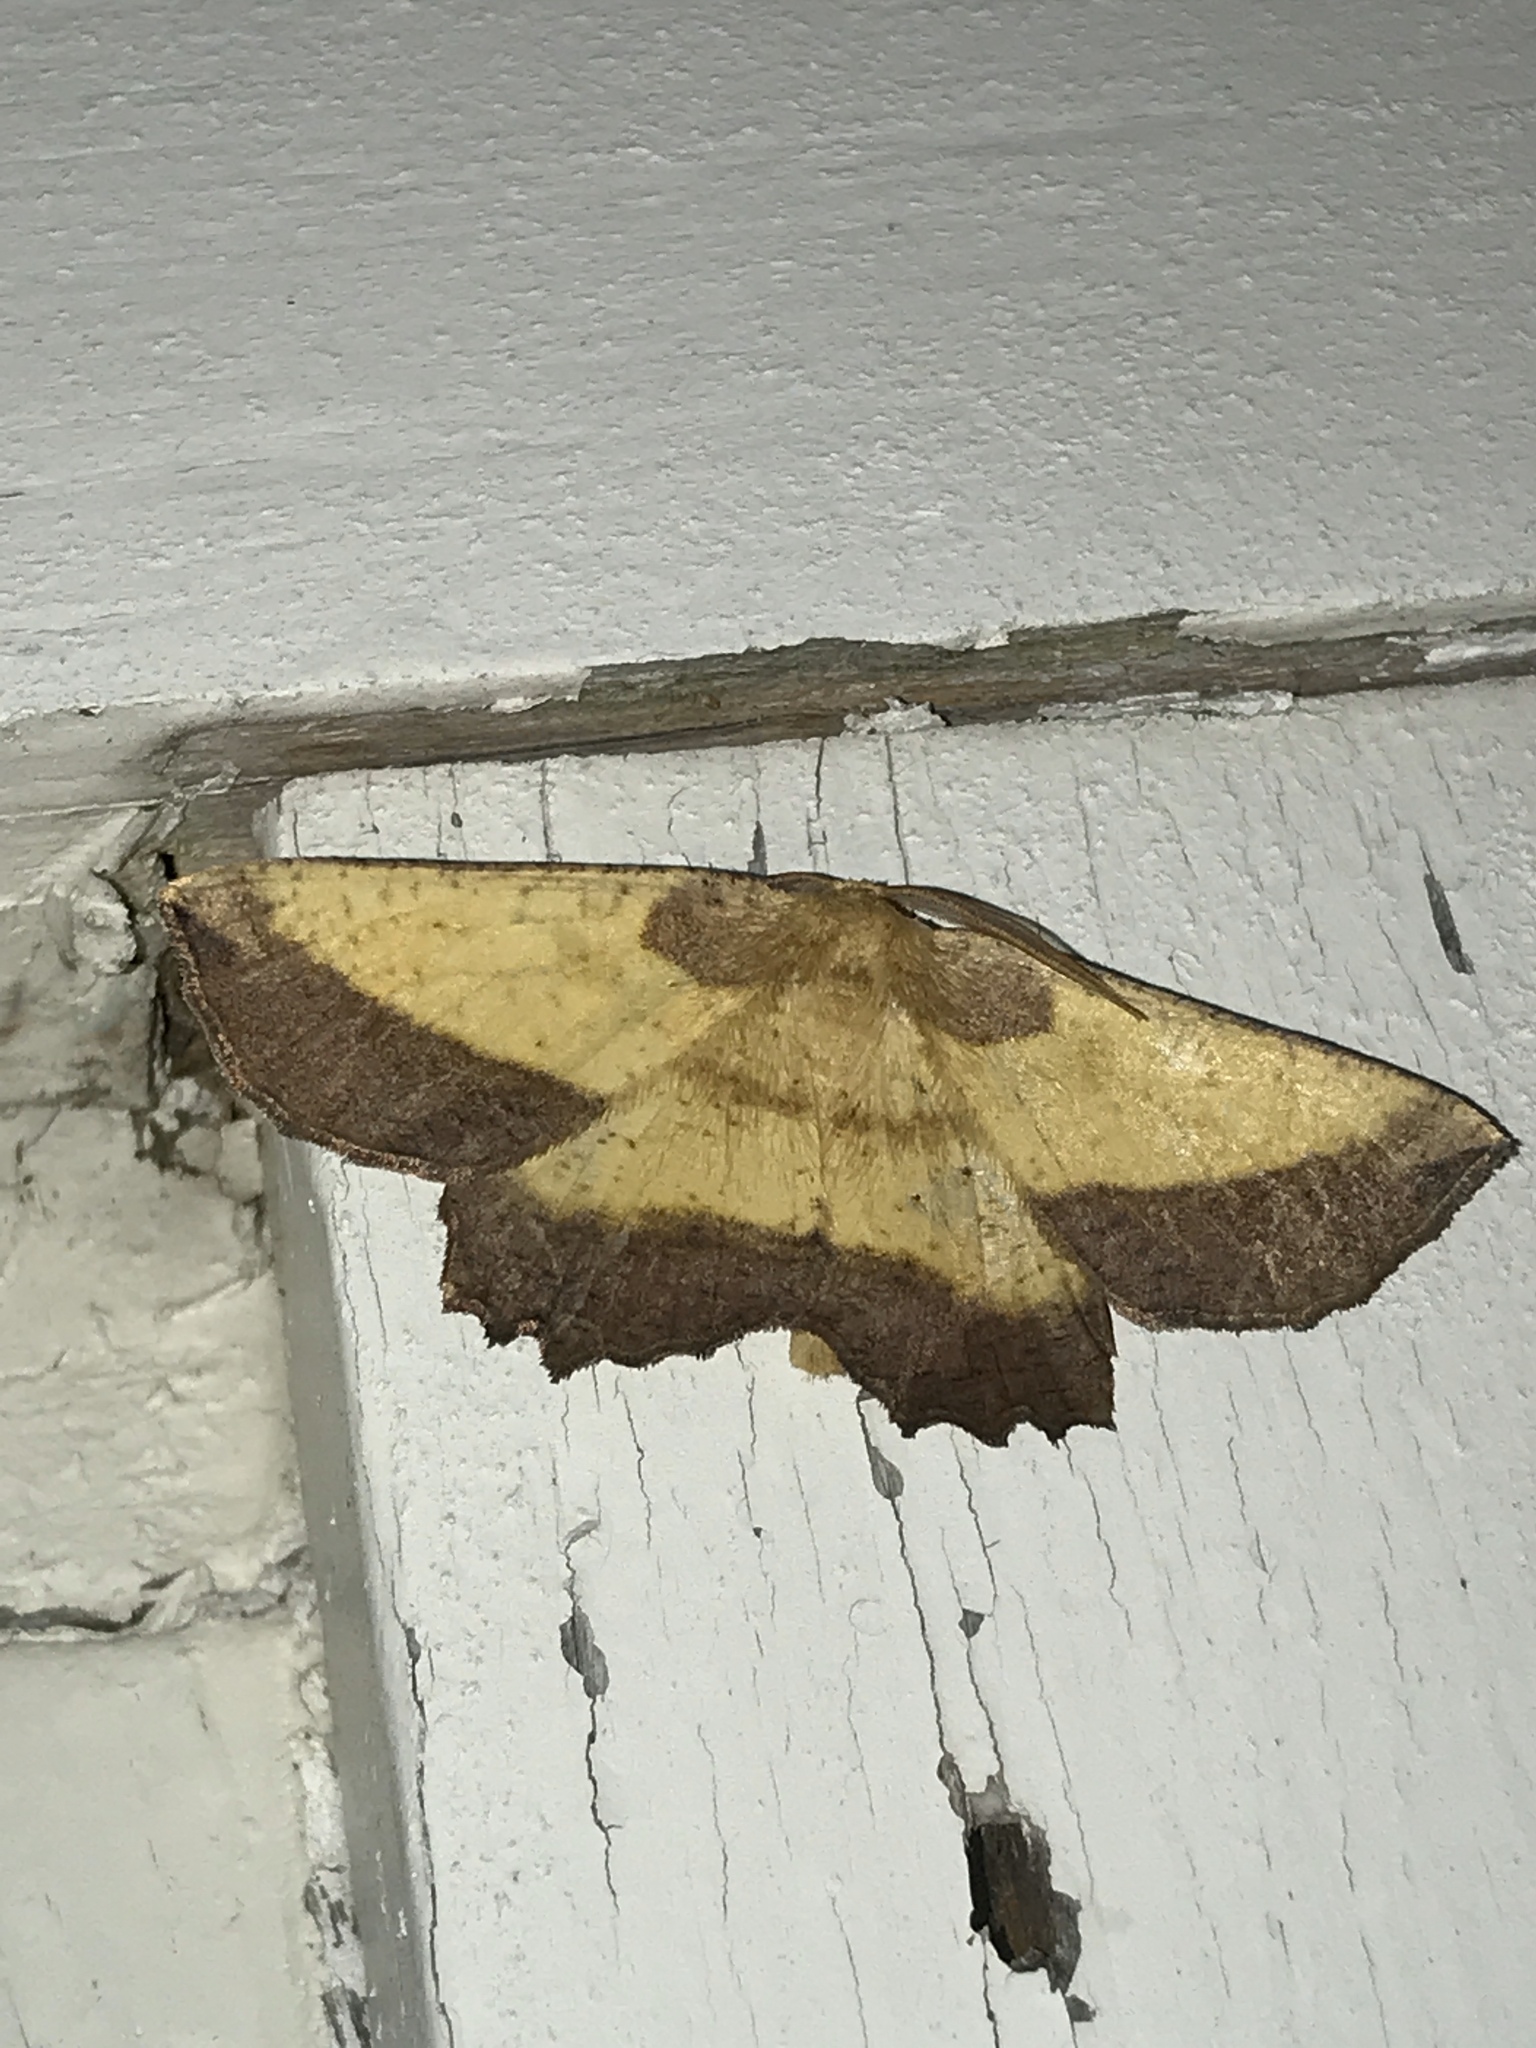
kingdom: Animalia
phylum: Arthropoda
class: Insecta
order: Lepidoptera
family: Geometridae
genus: Euchlaena
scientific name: Euchlaena serrata
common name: Saw wing
